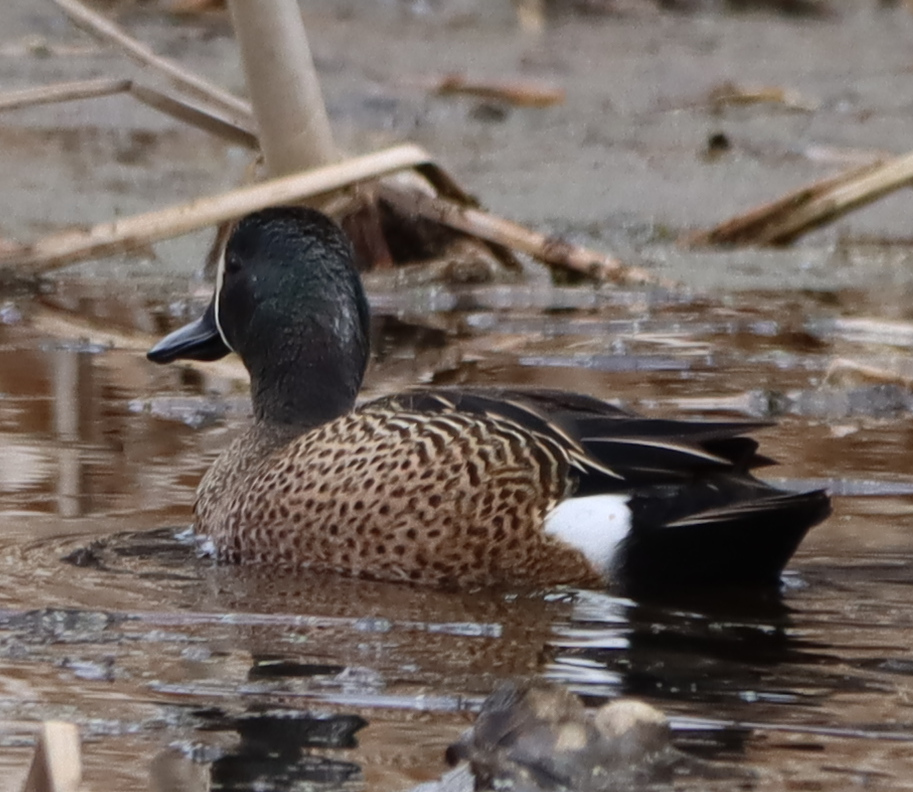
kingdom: Animalia
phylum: Chordata
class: Aves
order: Anseriformes
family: Anatidae
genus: Spatula
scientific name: Spatula discors
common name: Blue-winged teal
